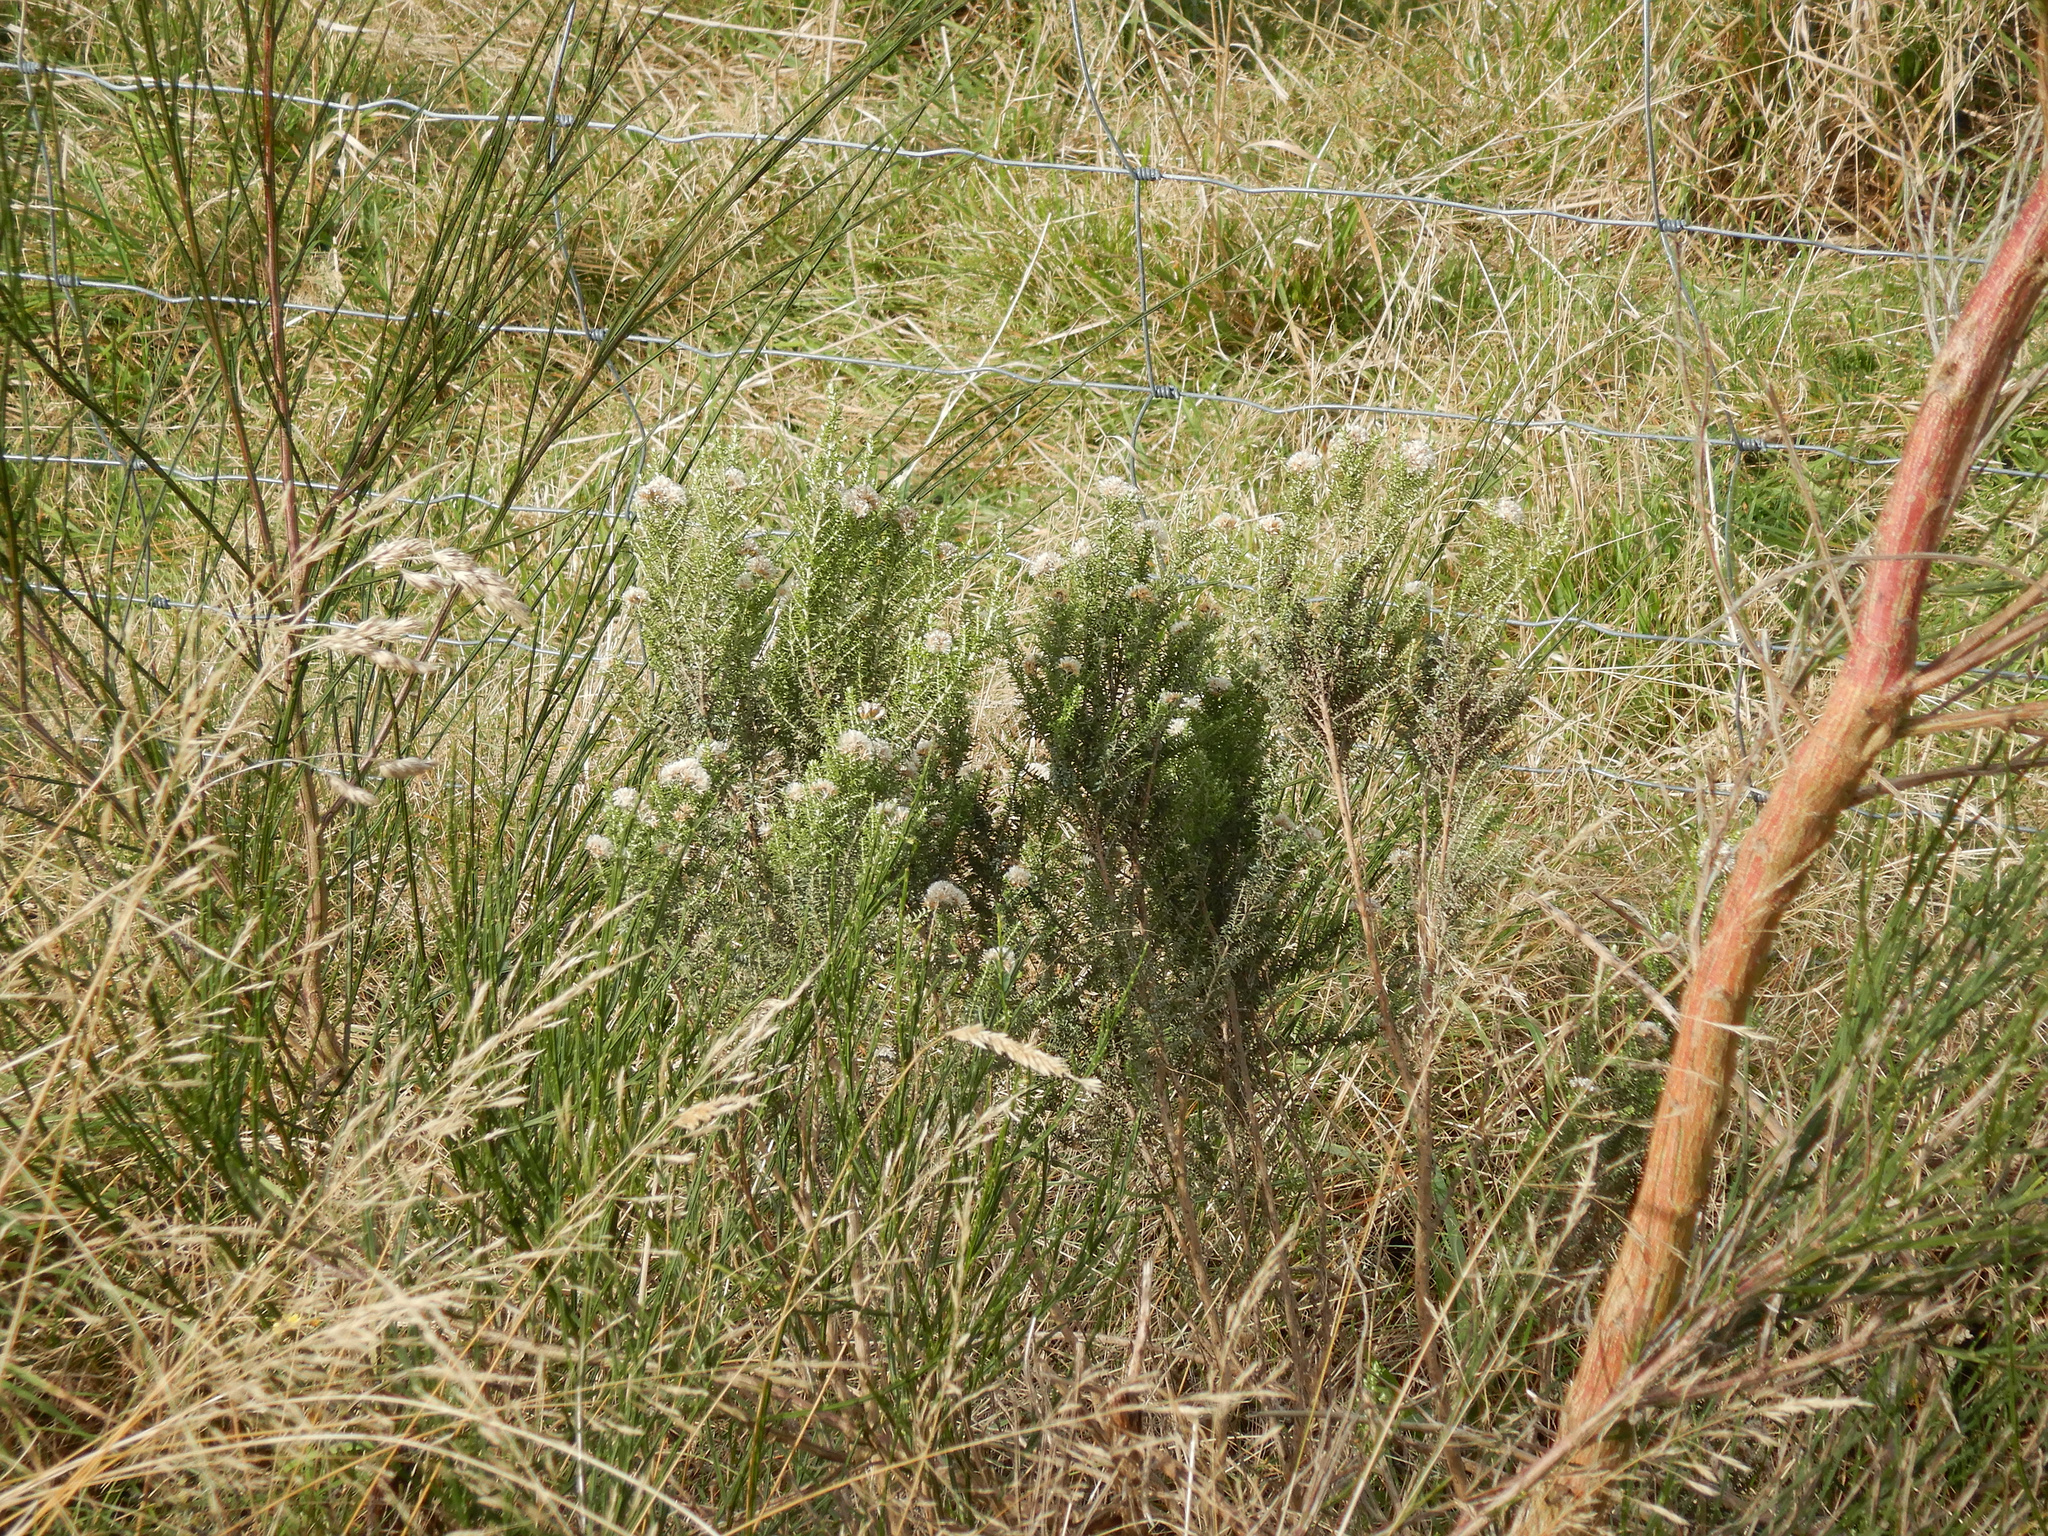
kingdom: Plantae
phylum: Tracheophyta
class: Magnoliopsida
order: Asterales
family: Asteraceae
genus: Ozothamnus
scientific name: Ozothamnus leptophyllus
